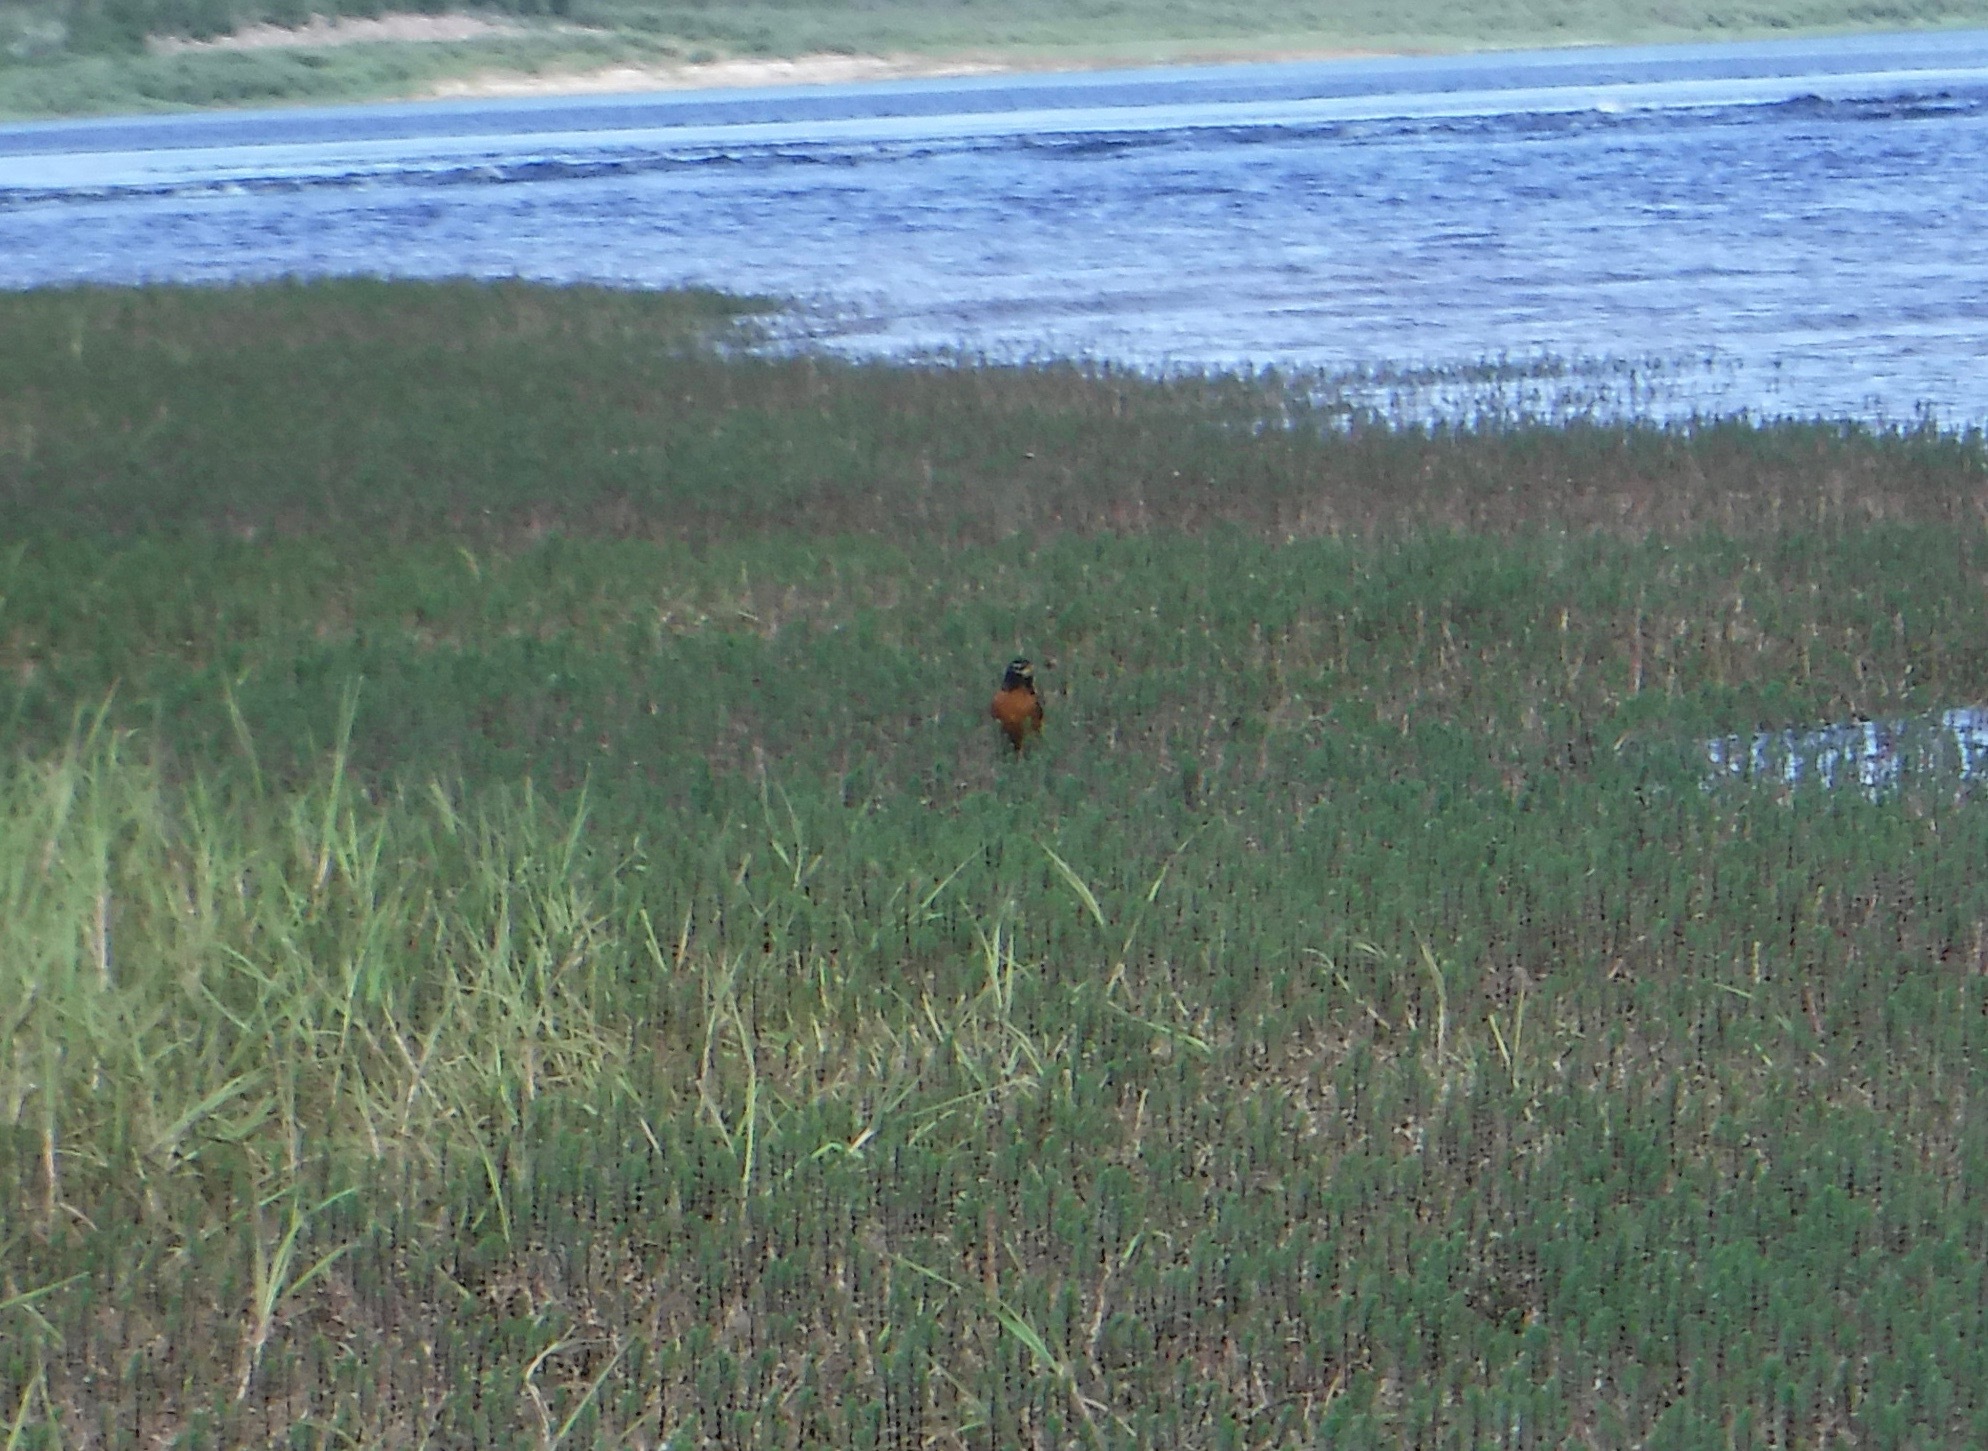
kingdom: Animalia
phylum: Chordata
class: Aves
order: Passeriformes
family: Turdidae
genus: Turdus
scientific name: Turdus migratorius
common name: American robin
